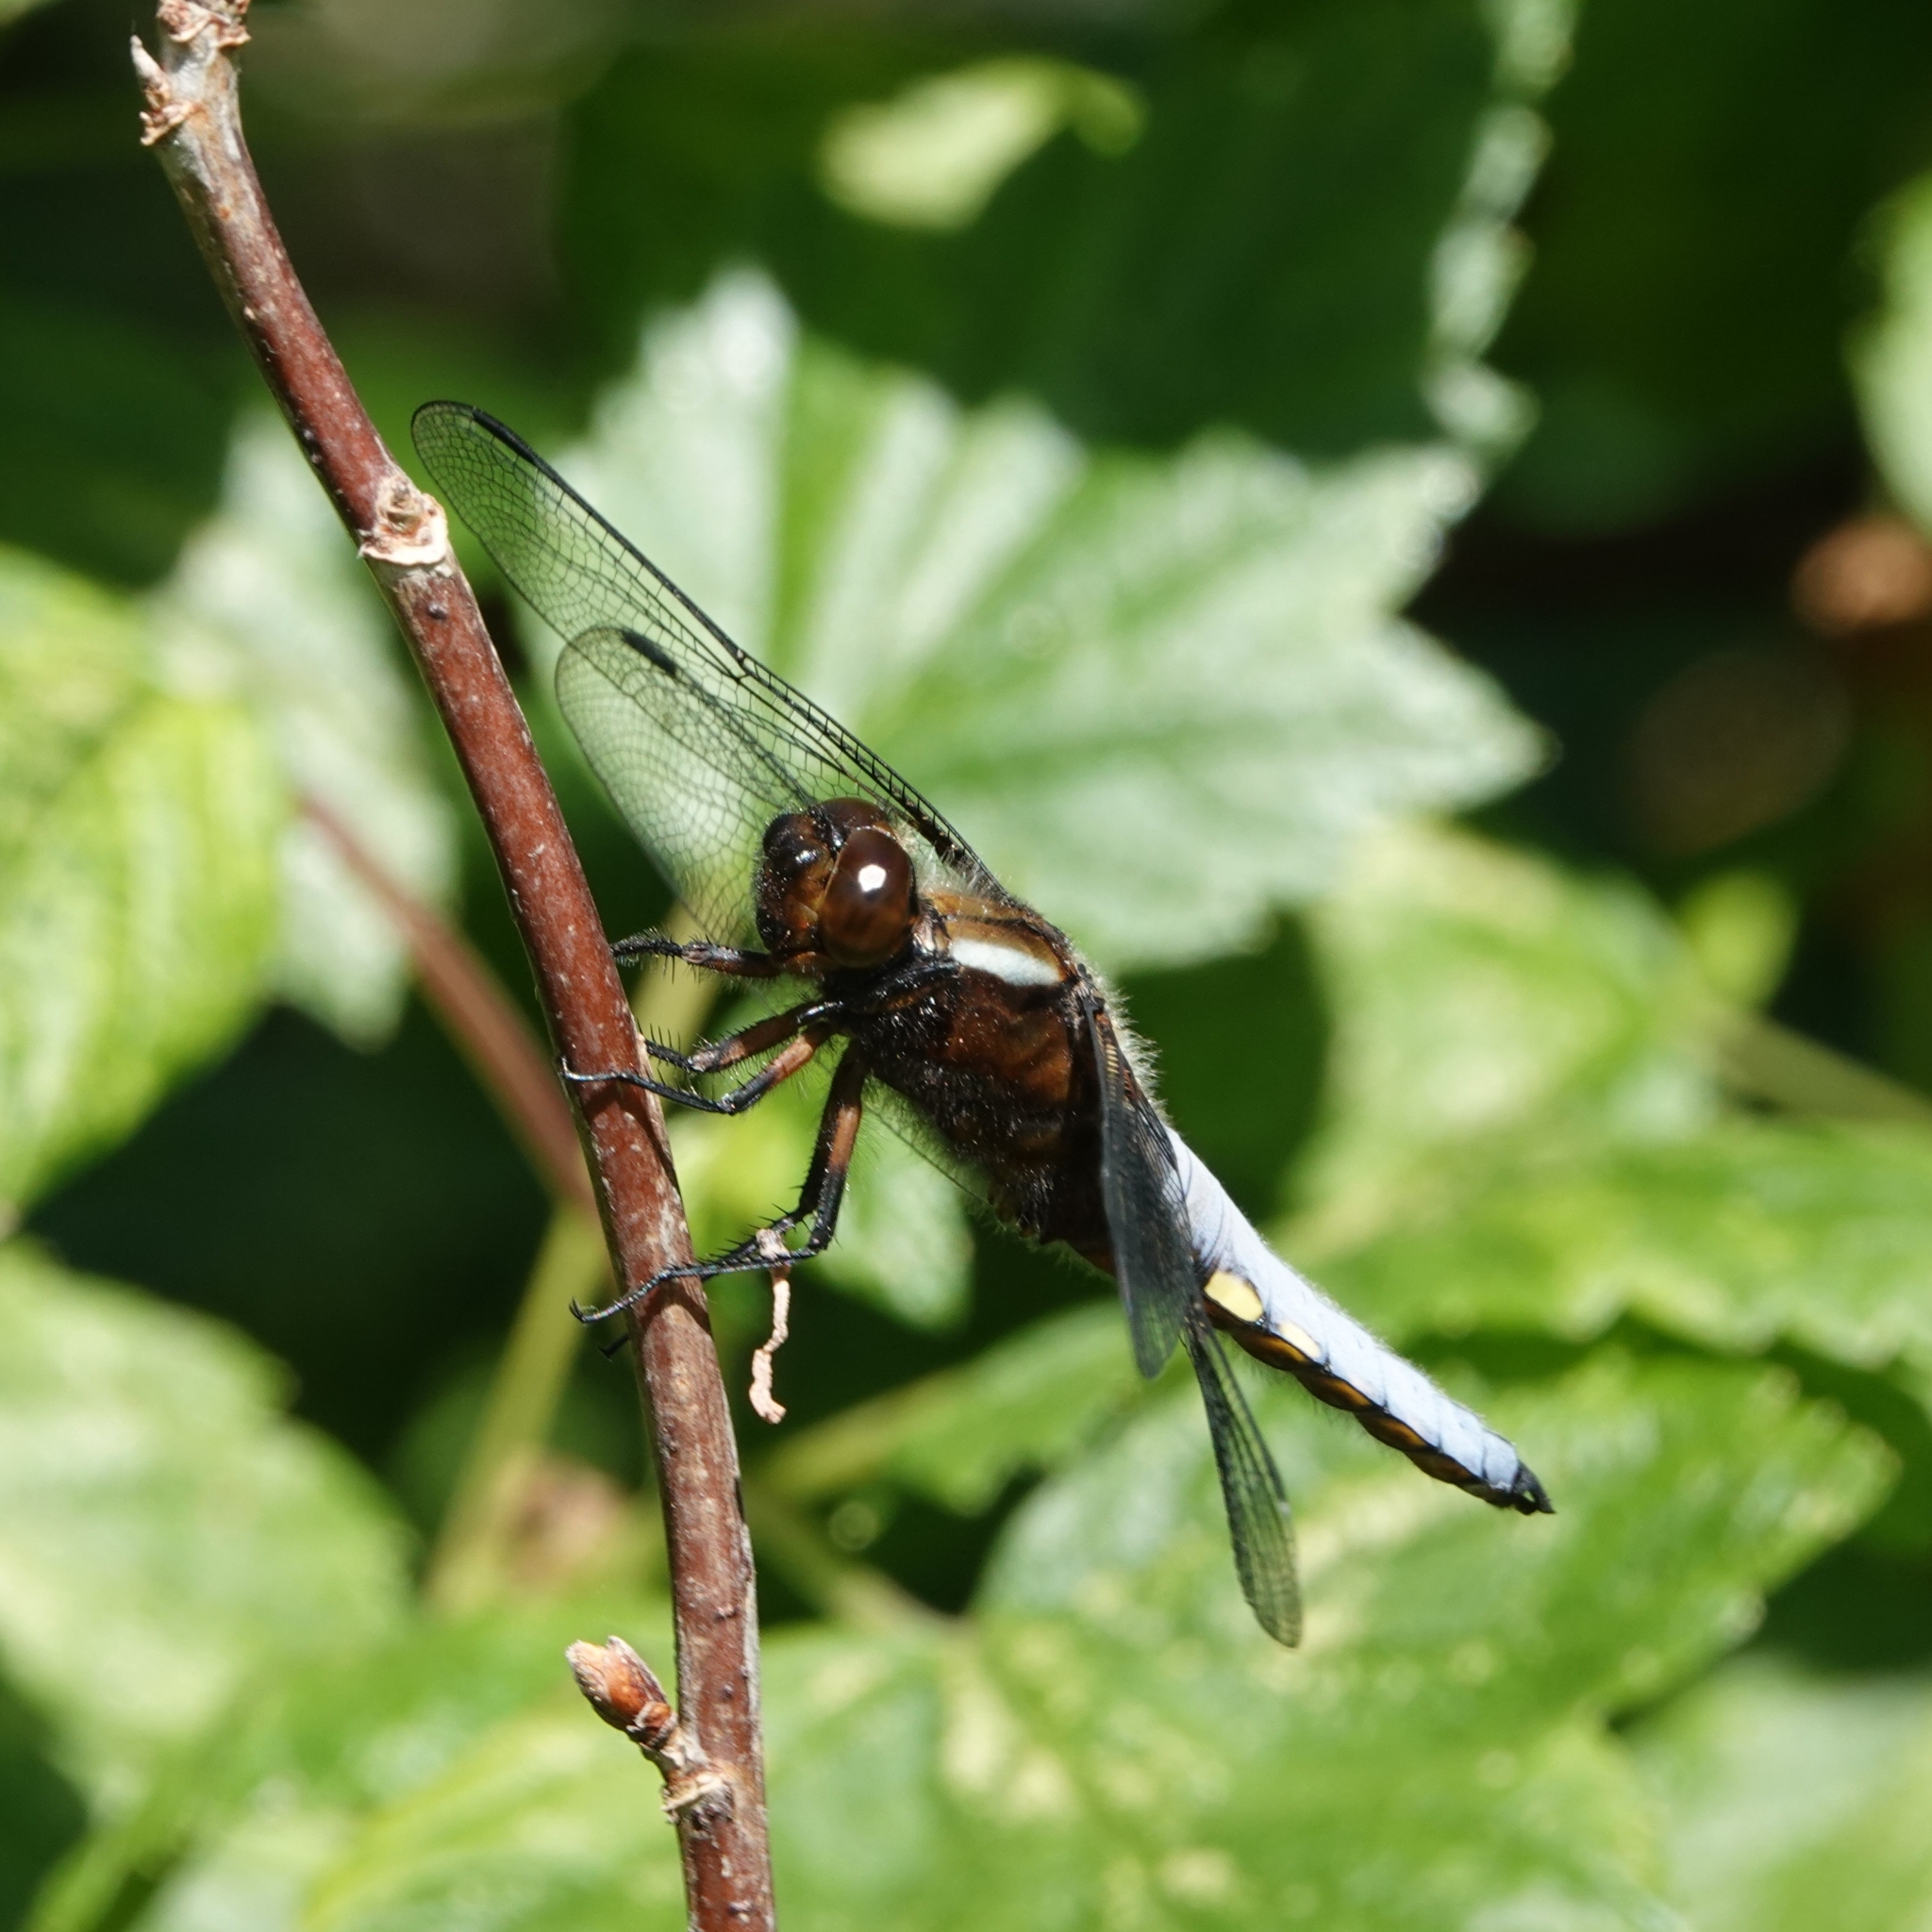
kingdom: Animalia
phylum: Arthropoda
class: Insecta
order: Odonata
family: Libellulidae
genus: Libellula
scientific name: Libellula depressa
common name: Broad-bodied chaser
